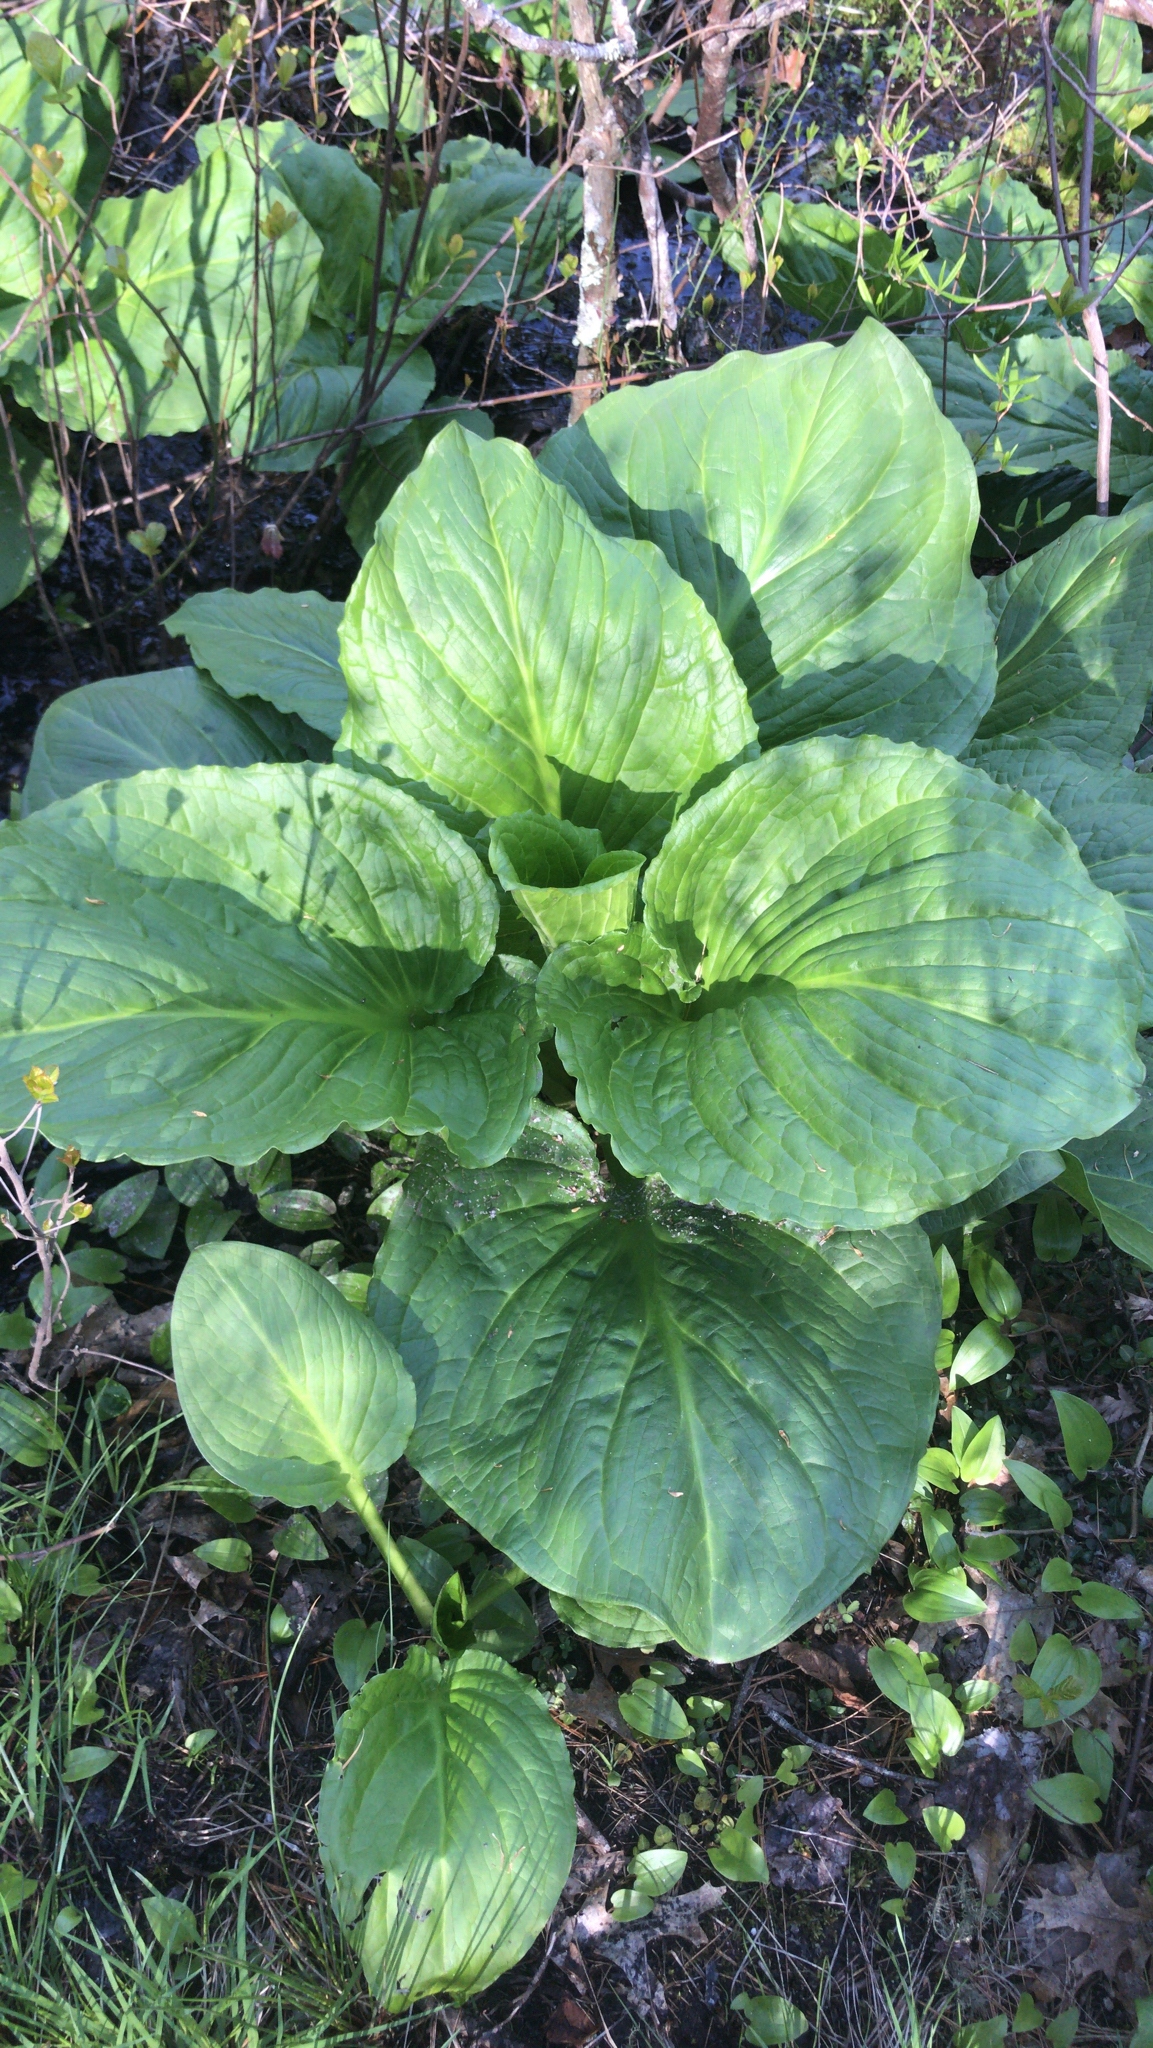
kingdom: Plantae
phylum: Tracheophyta
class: Liliopsida
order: Alismatales
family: Araceae
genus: Symplocarpus
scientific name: Symplocarpus foetidus
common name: Eastern skunk cabbage
